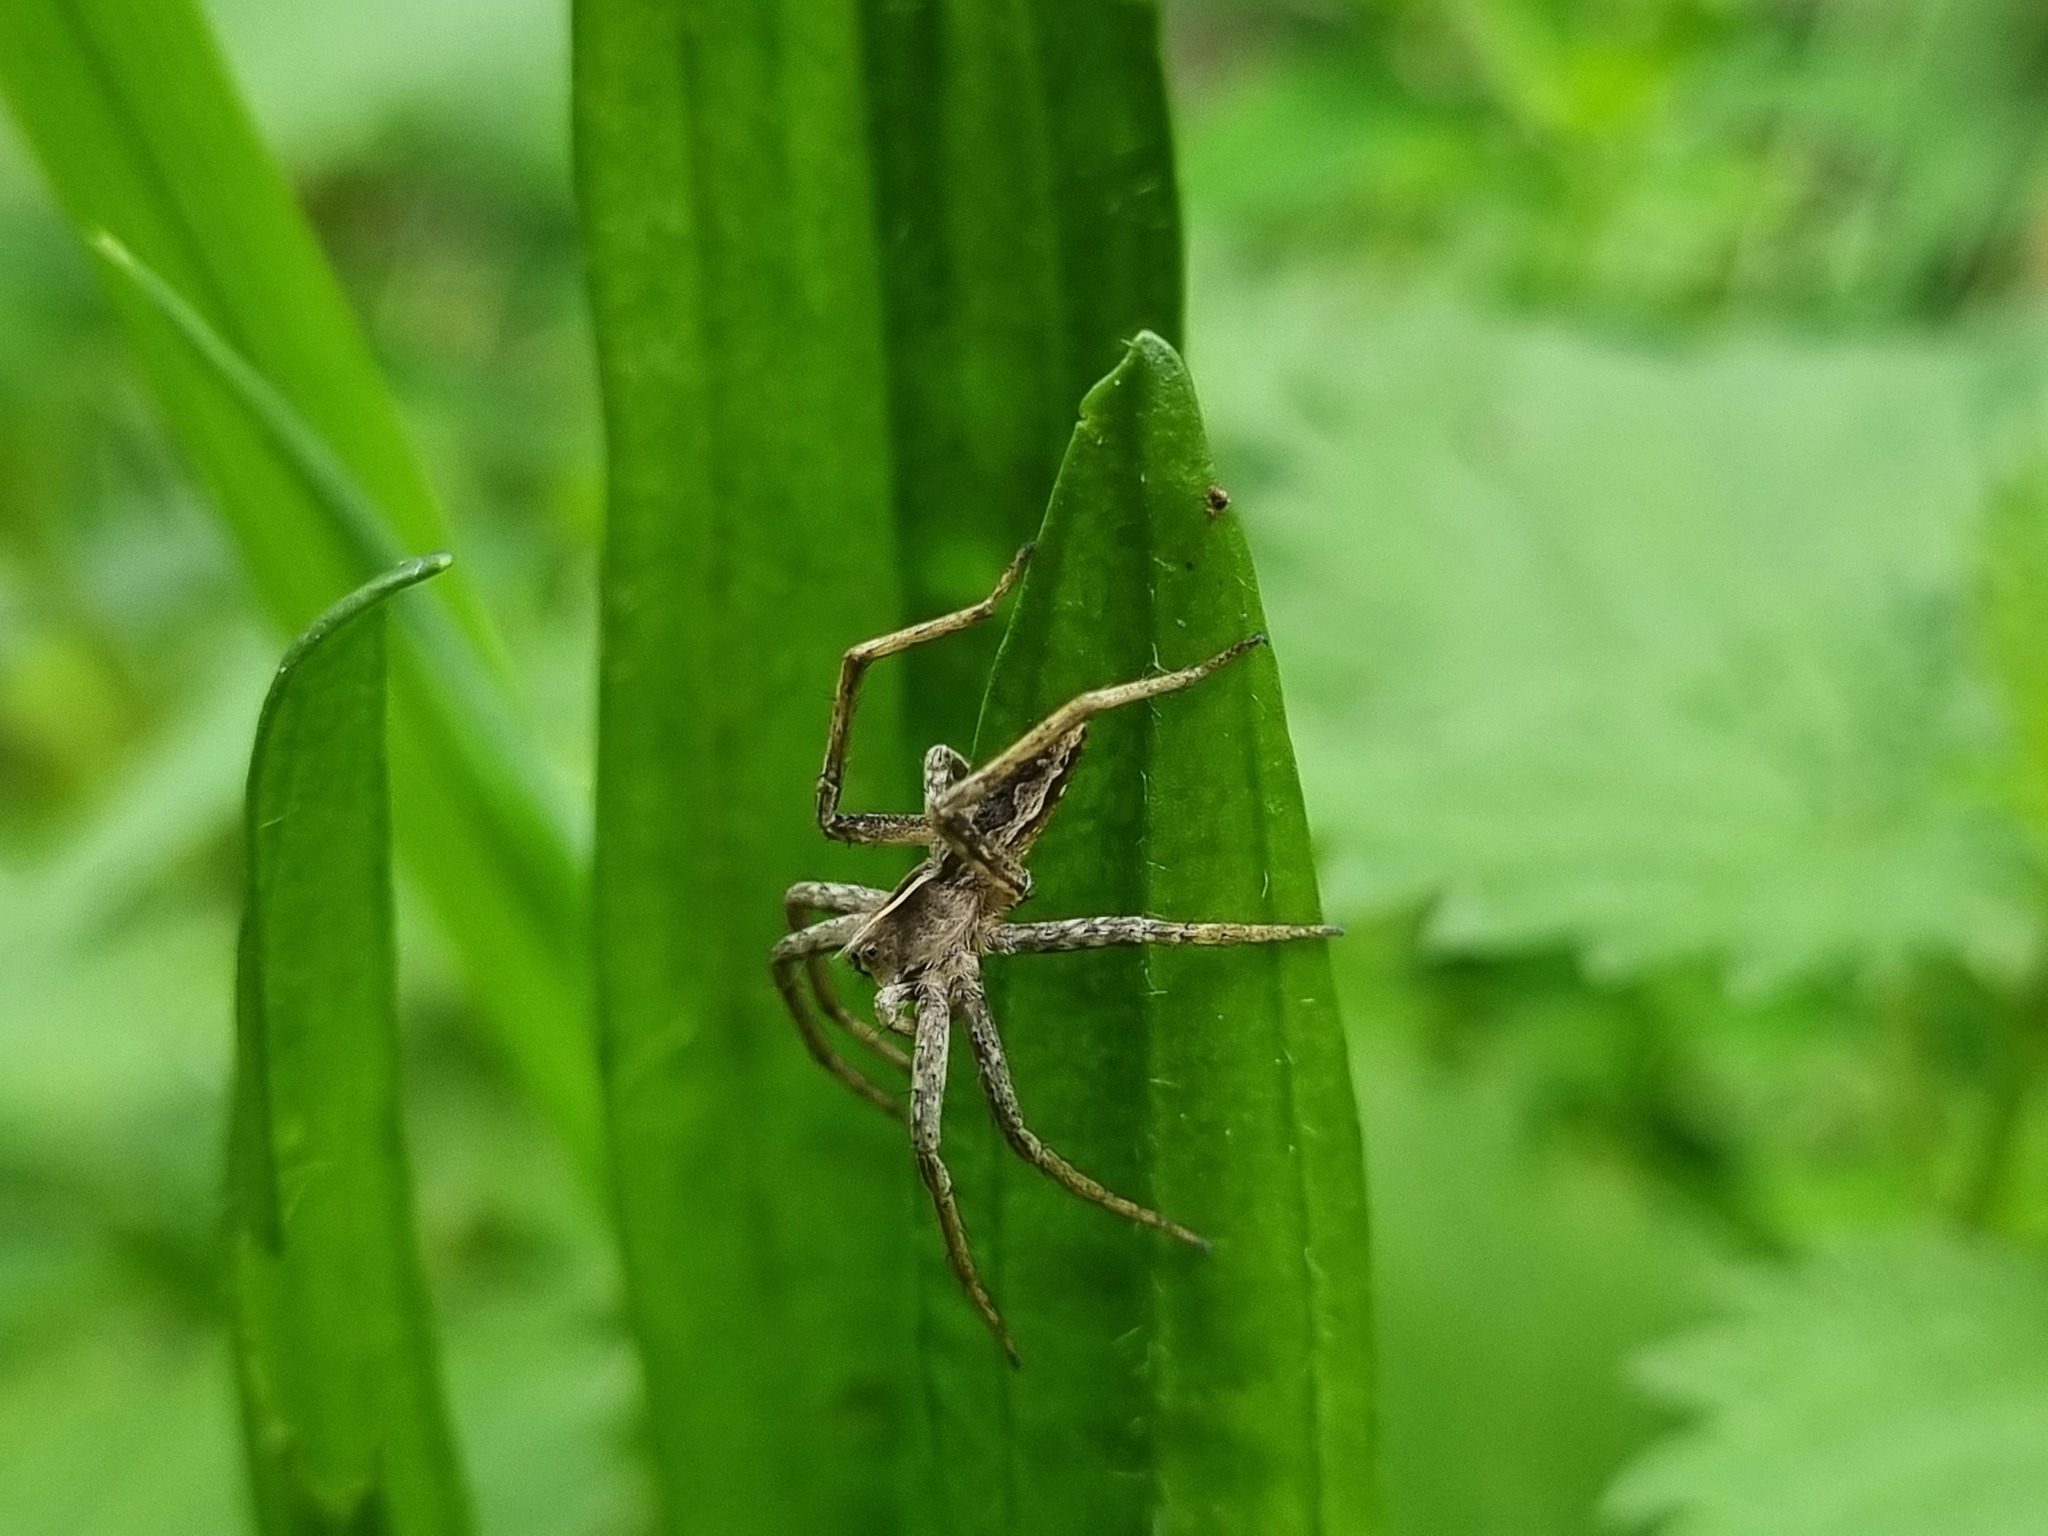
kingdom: Animalia
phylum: Arthropoda
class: Arachnida
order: Araneae
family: Pisauridae
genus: Pisaura
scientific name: Pisaura mirabilis
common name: Tent spider
